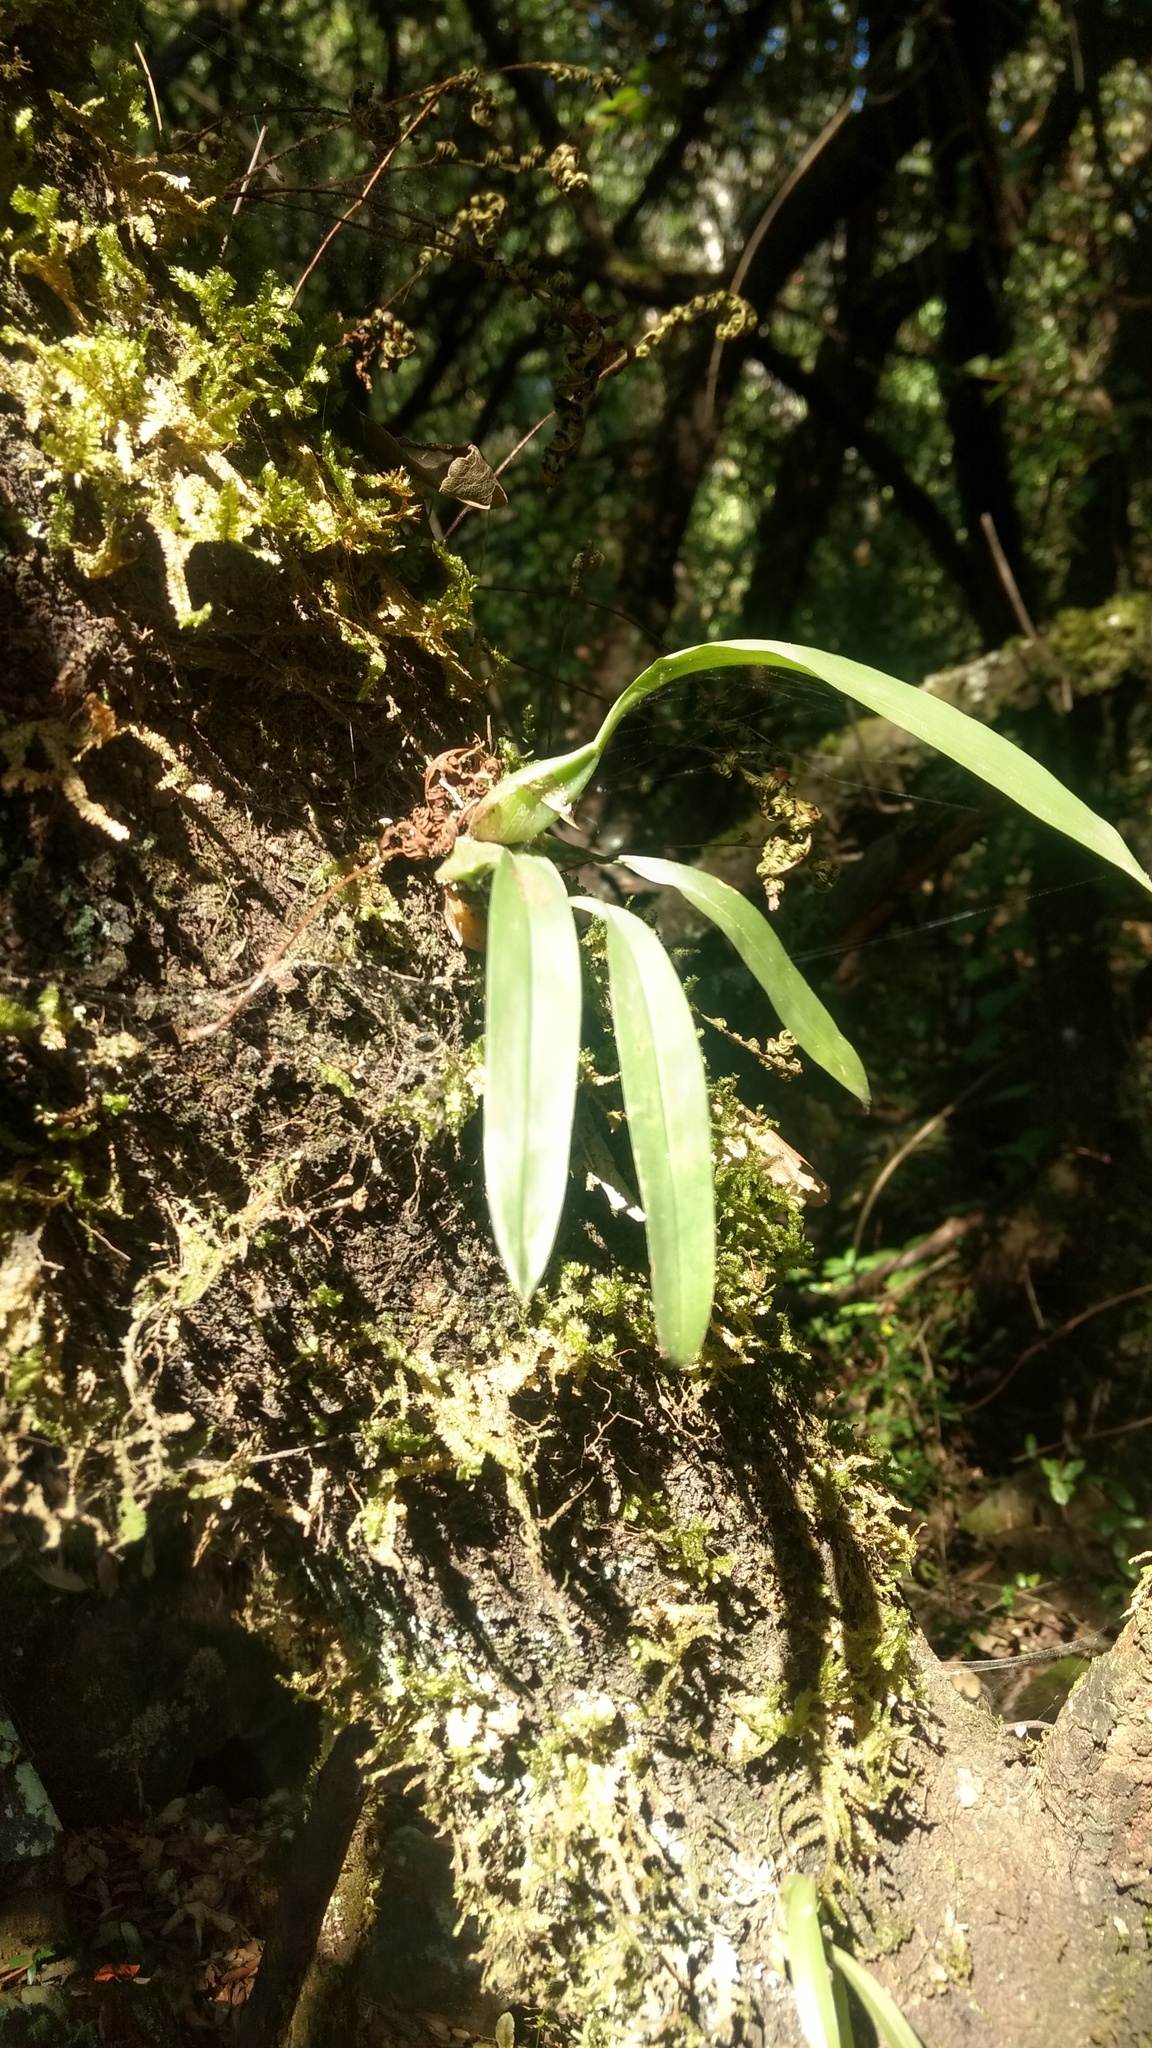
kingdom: Plantae
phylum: Tracheophyta
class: Liliopsida
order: Asparagales
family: Orchidaceae
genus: Rhynchostele
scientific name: Rhynchostele cervantesii
